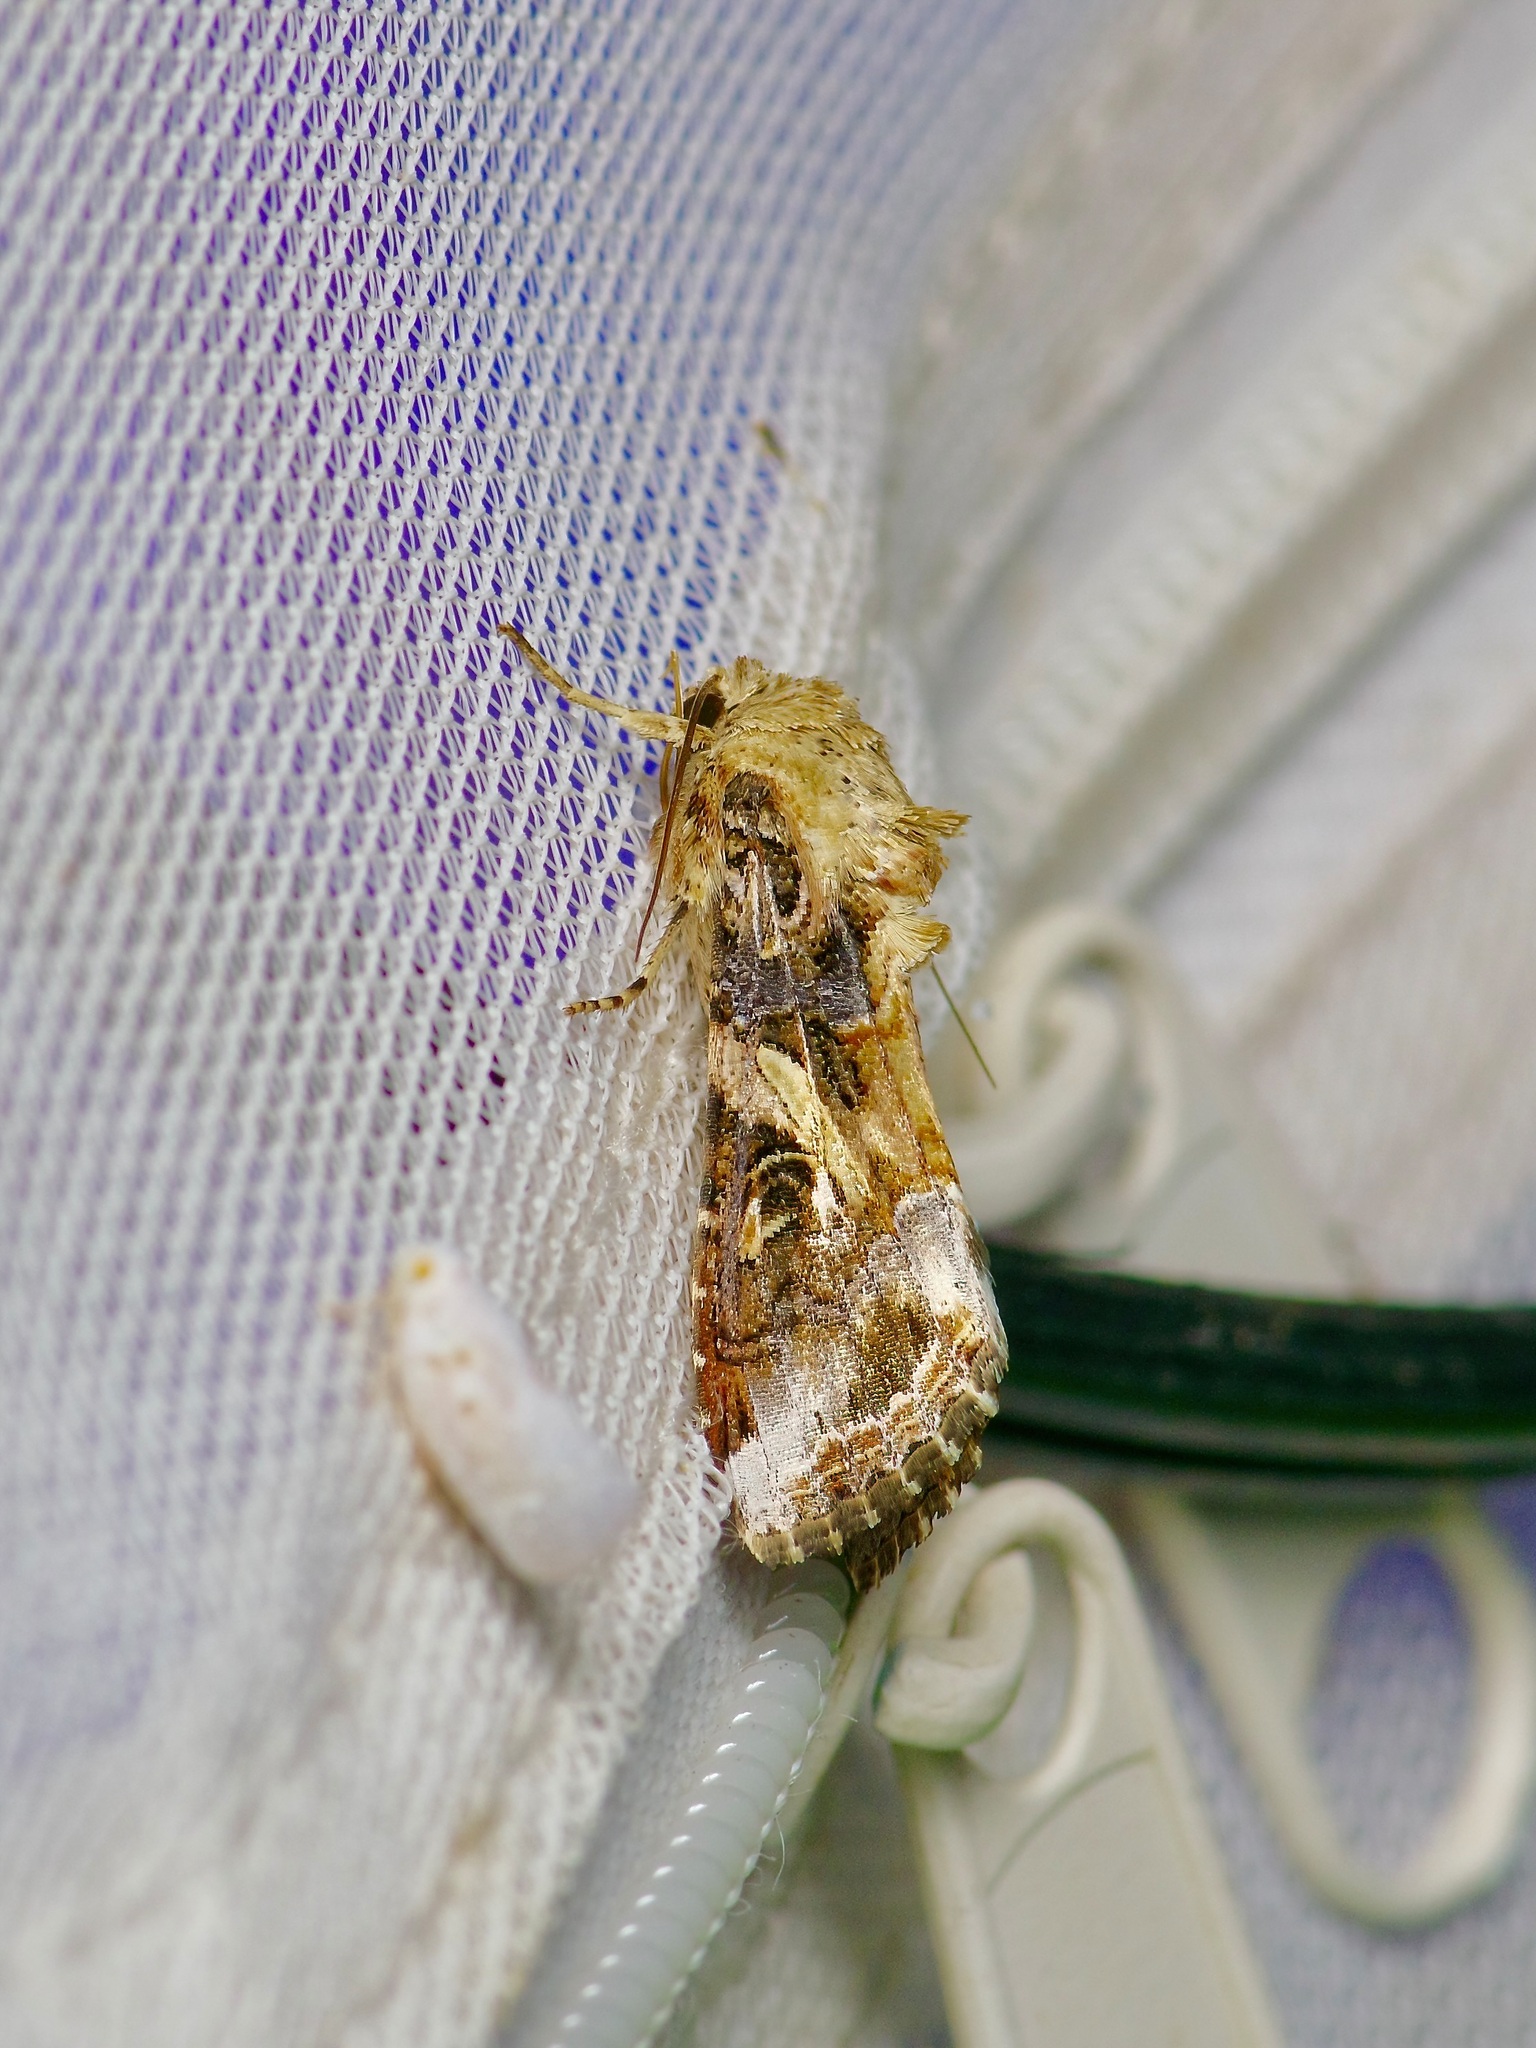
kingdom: Animalia
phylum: Arthropoda
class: Insecta
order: Lepidoptera
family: Noctuidae
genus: Spodoptera
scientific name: Spodoptera ornithogalli
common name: Yellow-striped armyworm
